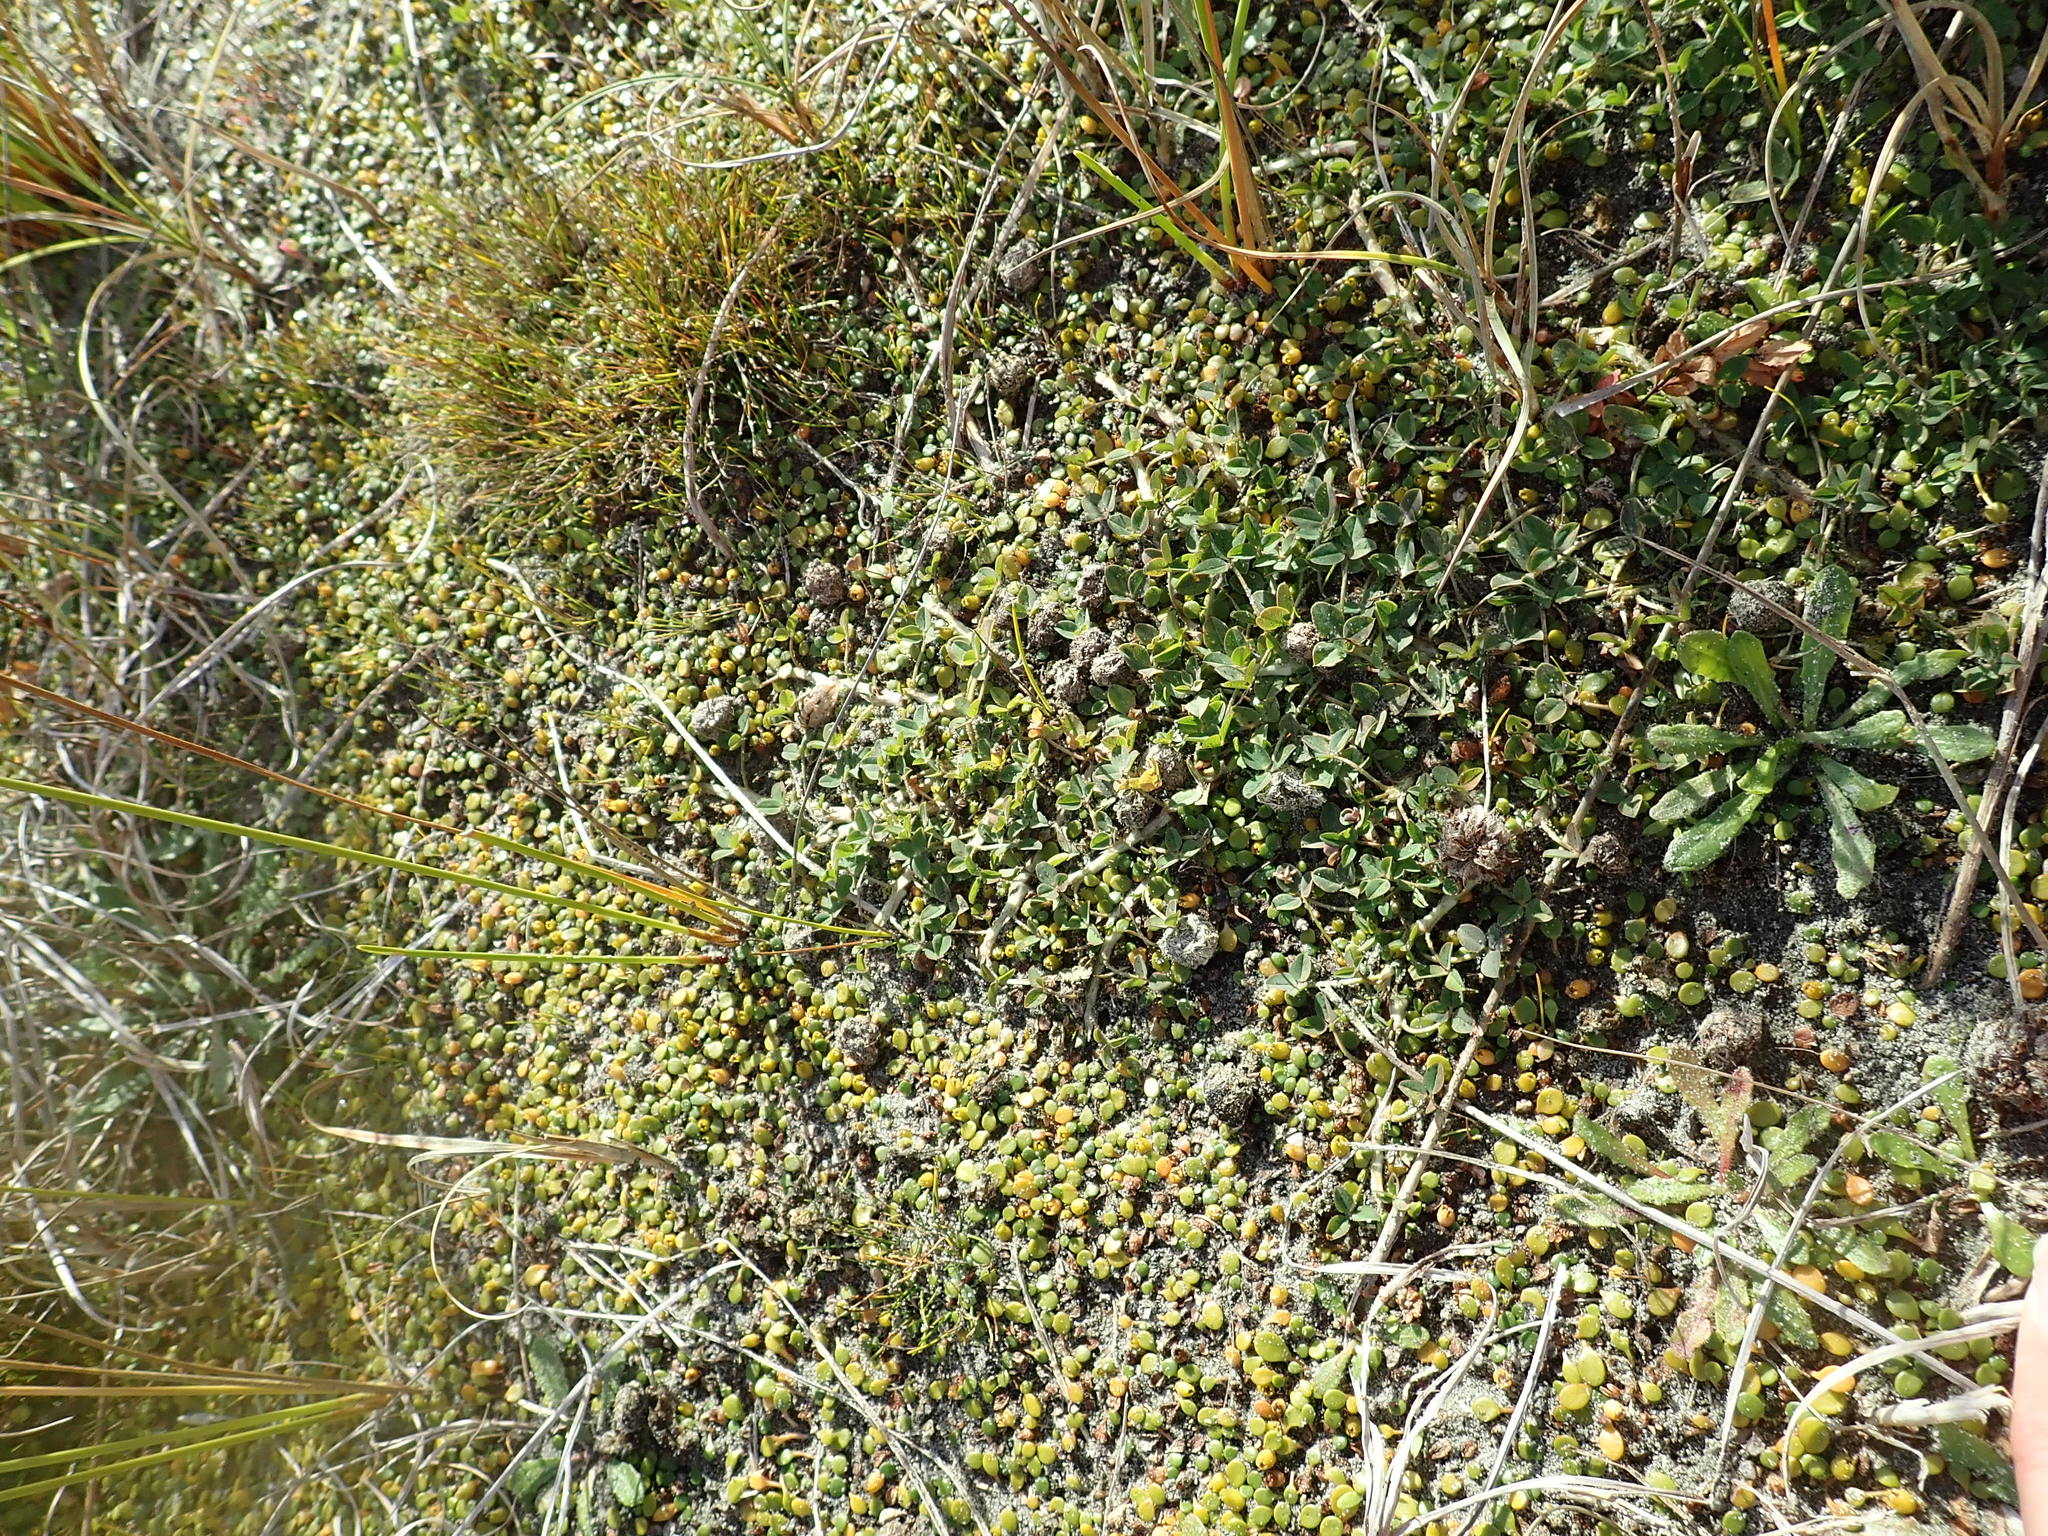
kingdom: Plantae
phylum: Tracheophyta
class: Magnoliopsida
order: Asterales
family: Goodeniaceae
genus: Goodenia
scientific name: Goodenia heenanii
